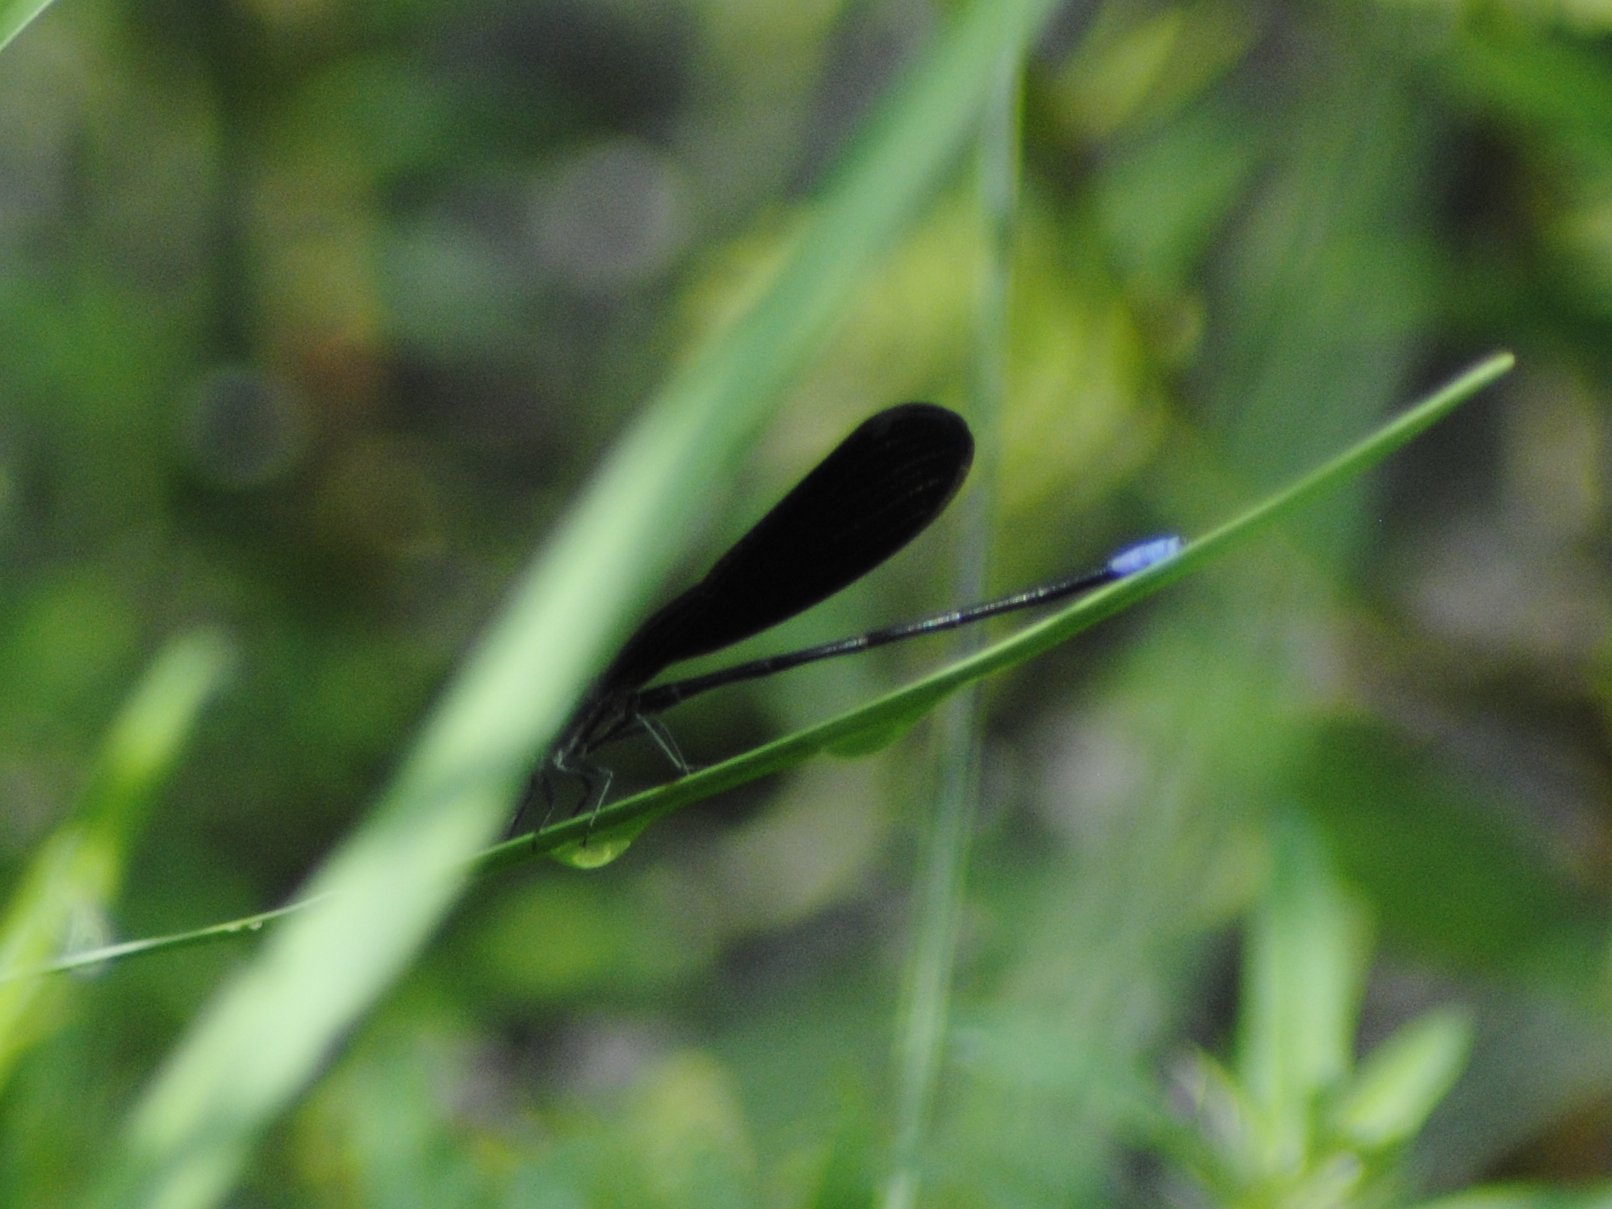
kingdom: Animalia
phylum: Arthropoda
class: Insecta
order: Odonata
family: Coenagrionidae
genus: Argia
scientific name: Argia fumipennis
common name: Variable dancer
